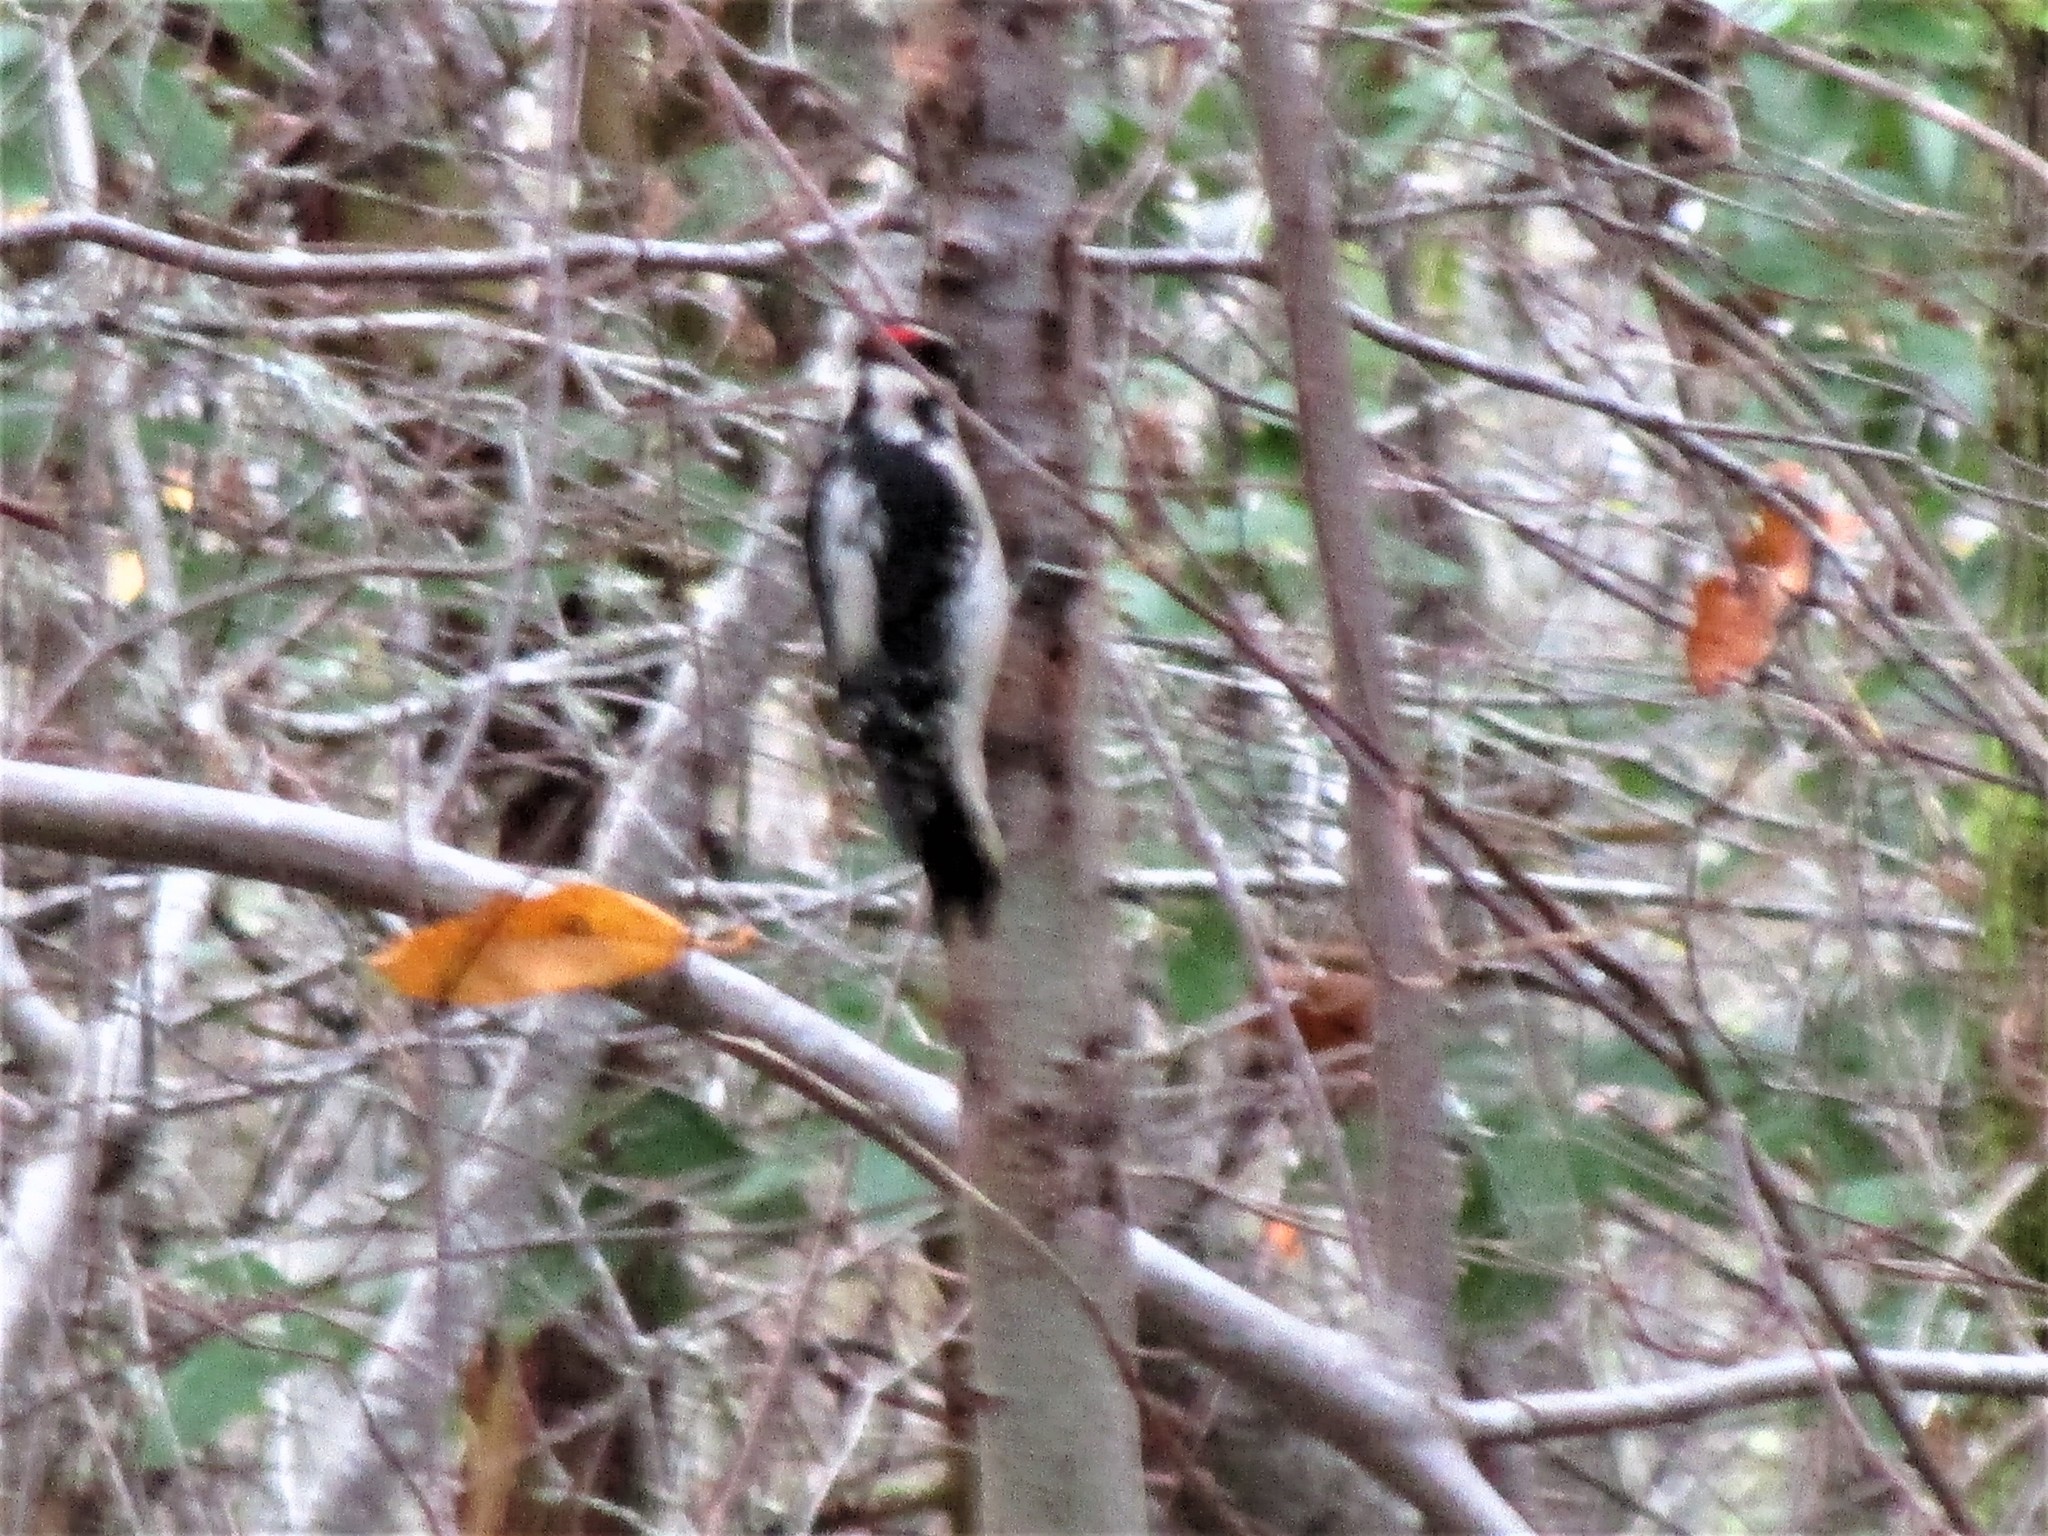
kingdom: Animalia
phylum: Chordata
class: Aves
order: Piciformes
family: Picidae
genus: Dryobates
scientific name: Dryobates pubescens
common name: Downy woodpecker
